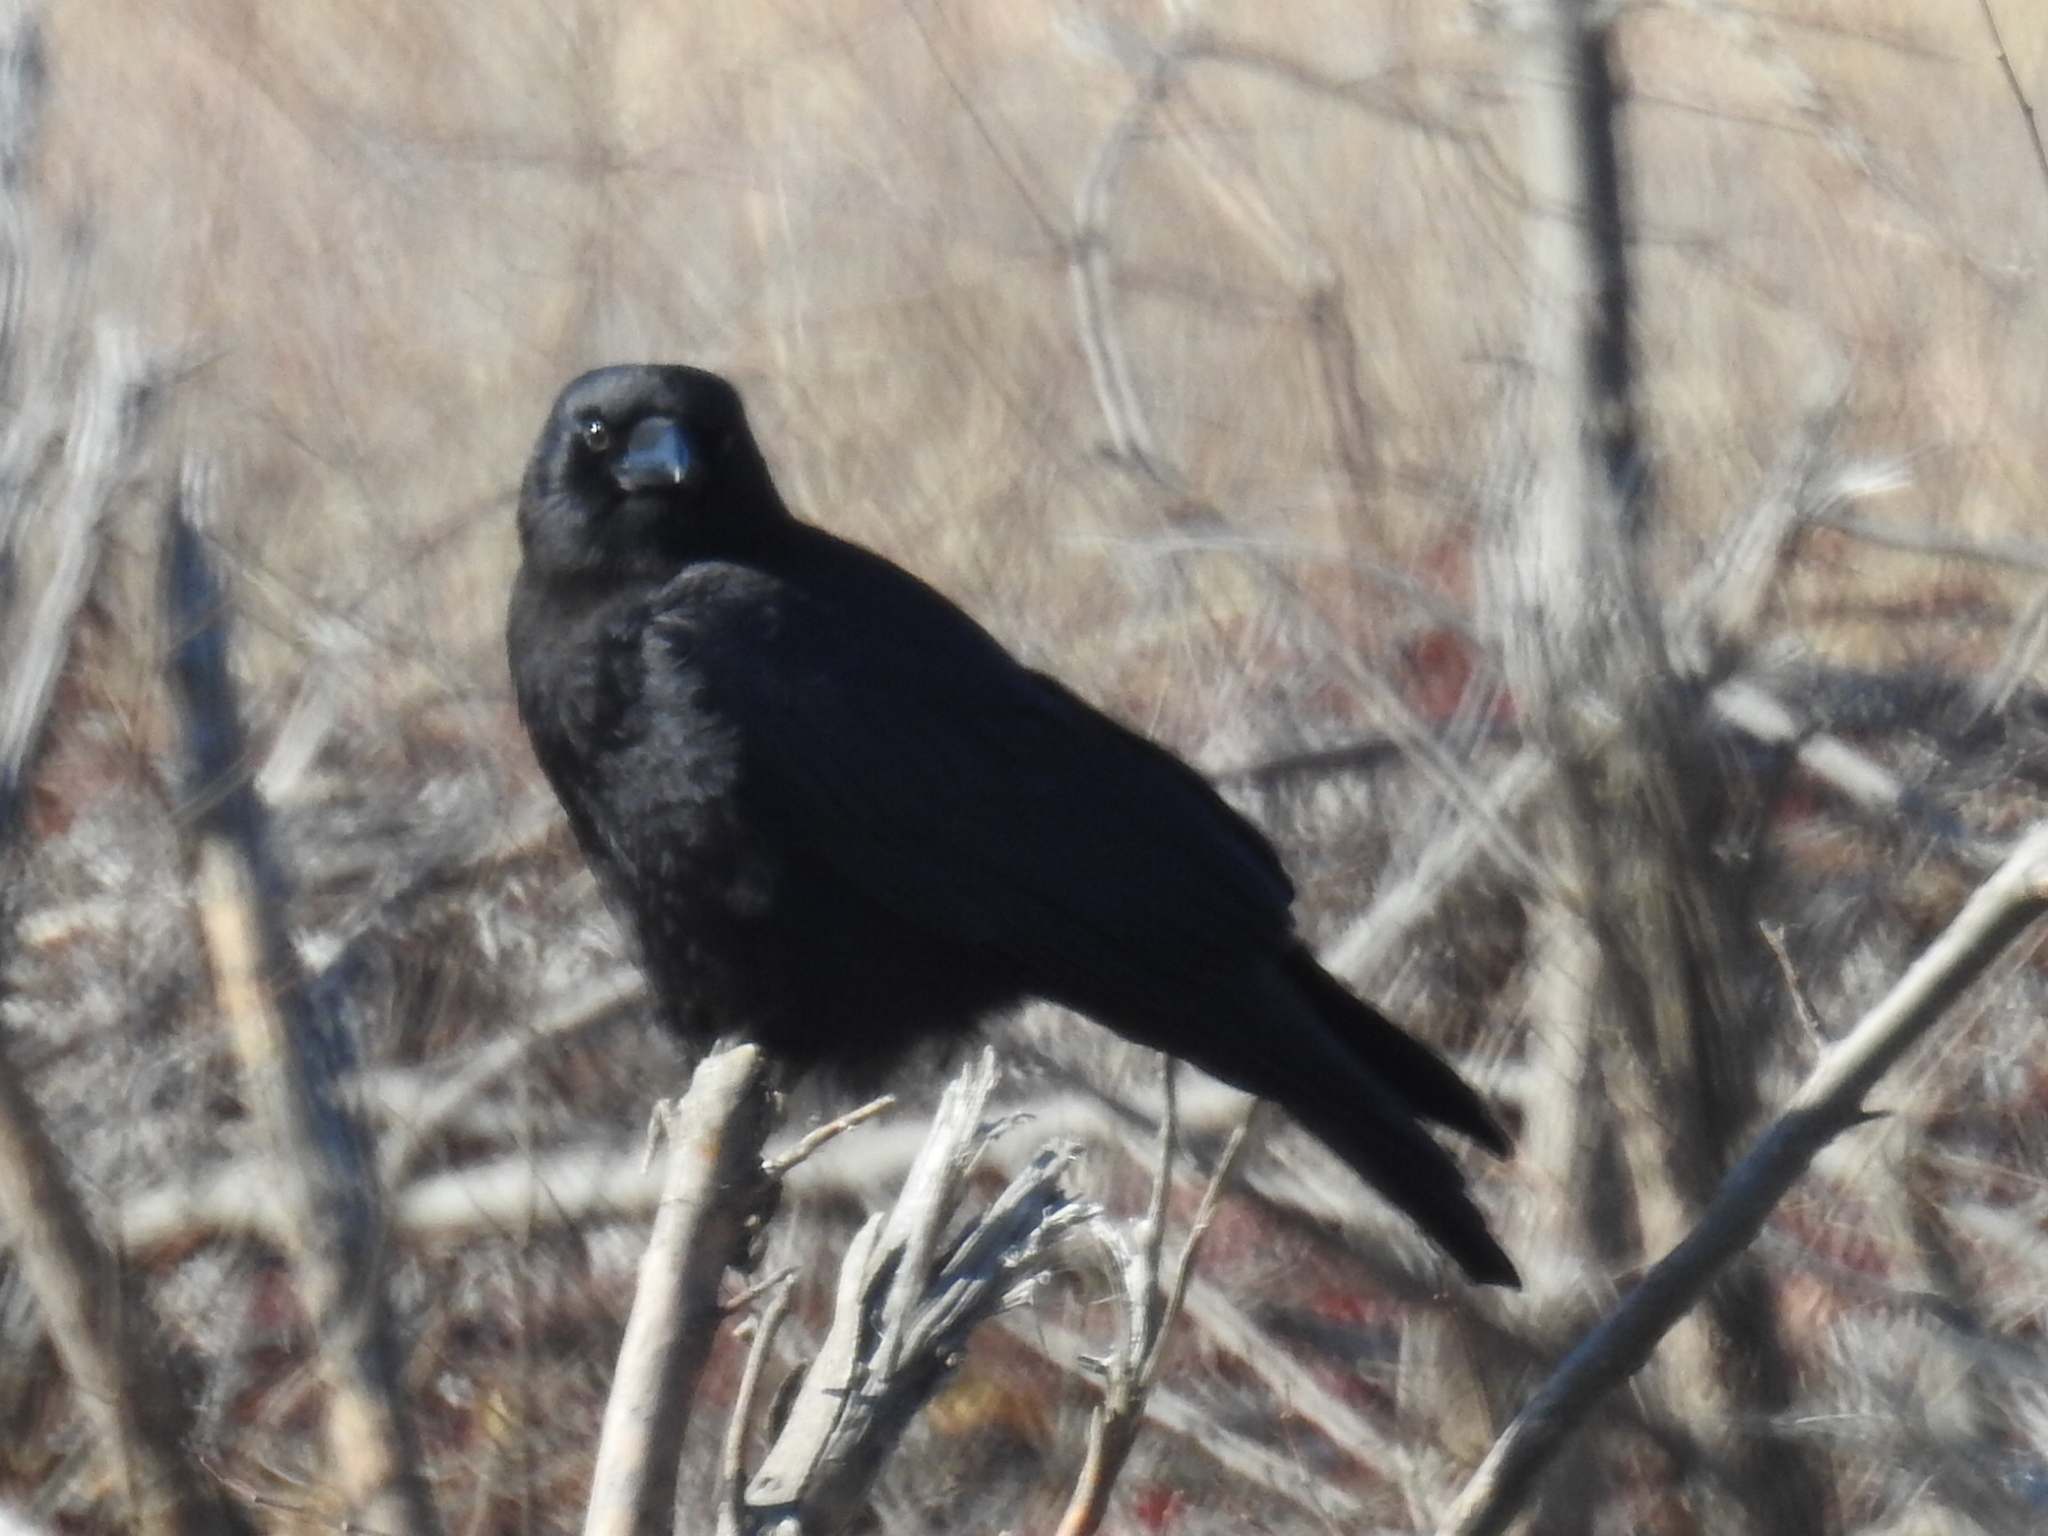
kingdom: Animalia
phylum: Chordata
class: Aves
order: Passeriformes
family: Corvidae
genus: Corvus
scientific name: Corvus brachyrhynchos
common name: American crow
